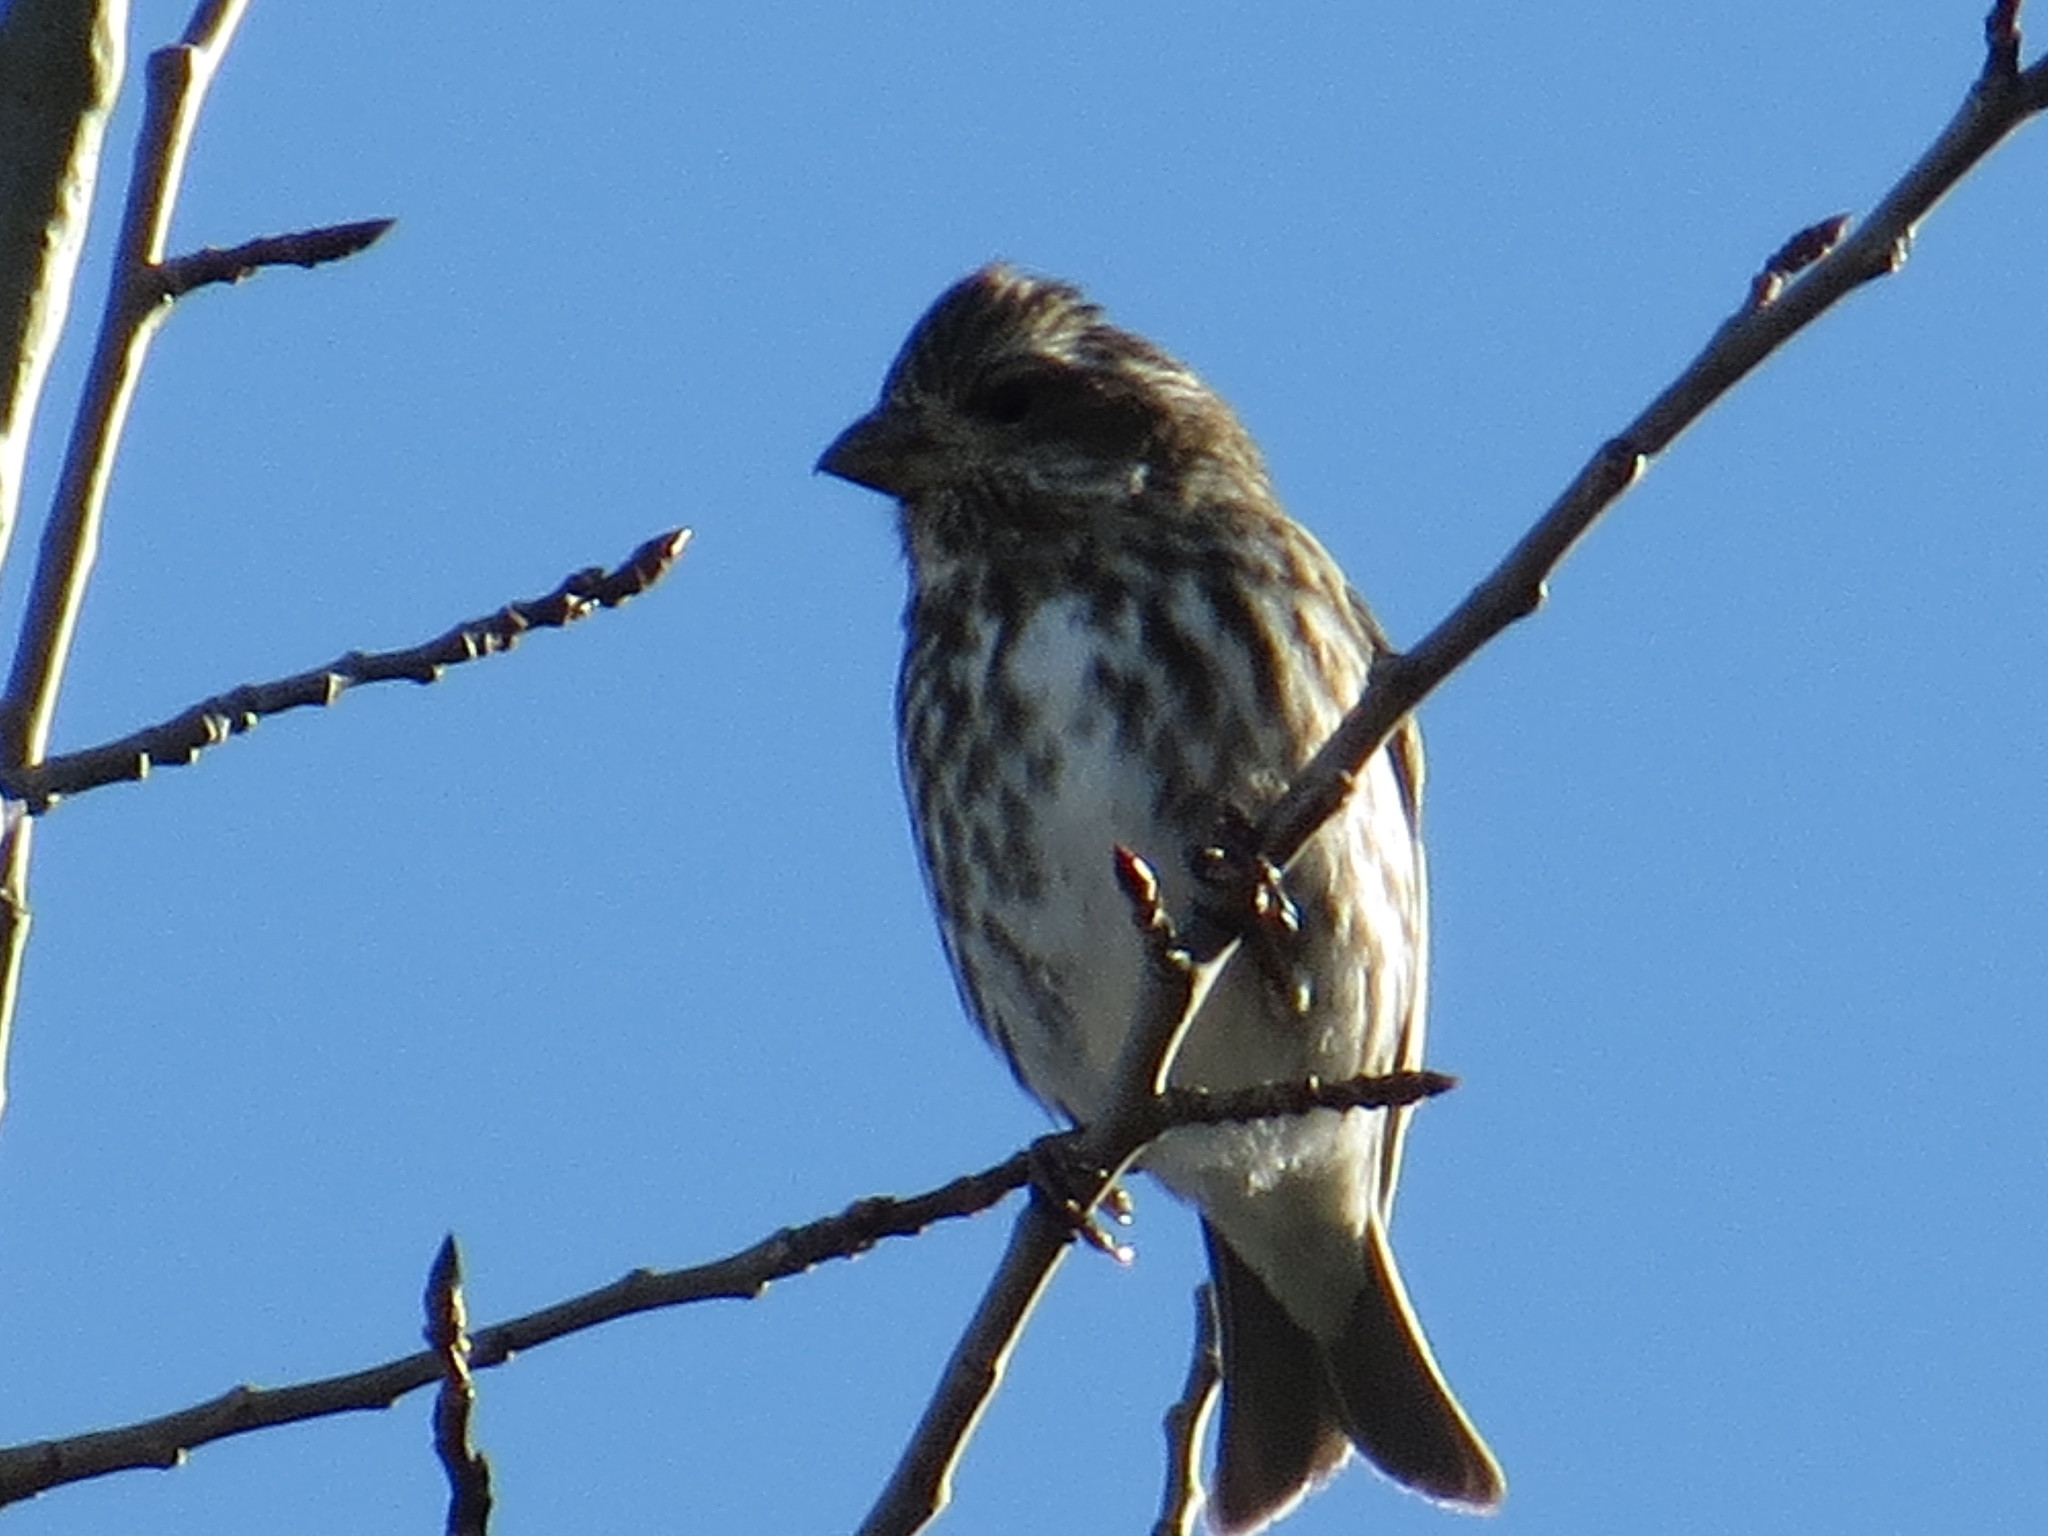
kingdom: Animalia
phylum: Chordata
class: Aves
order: Passeriformes
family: Fringillidae
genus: Haemorhous
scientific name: Haemorhous purpureus
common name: Purple finch
